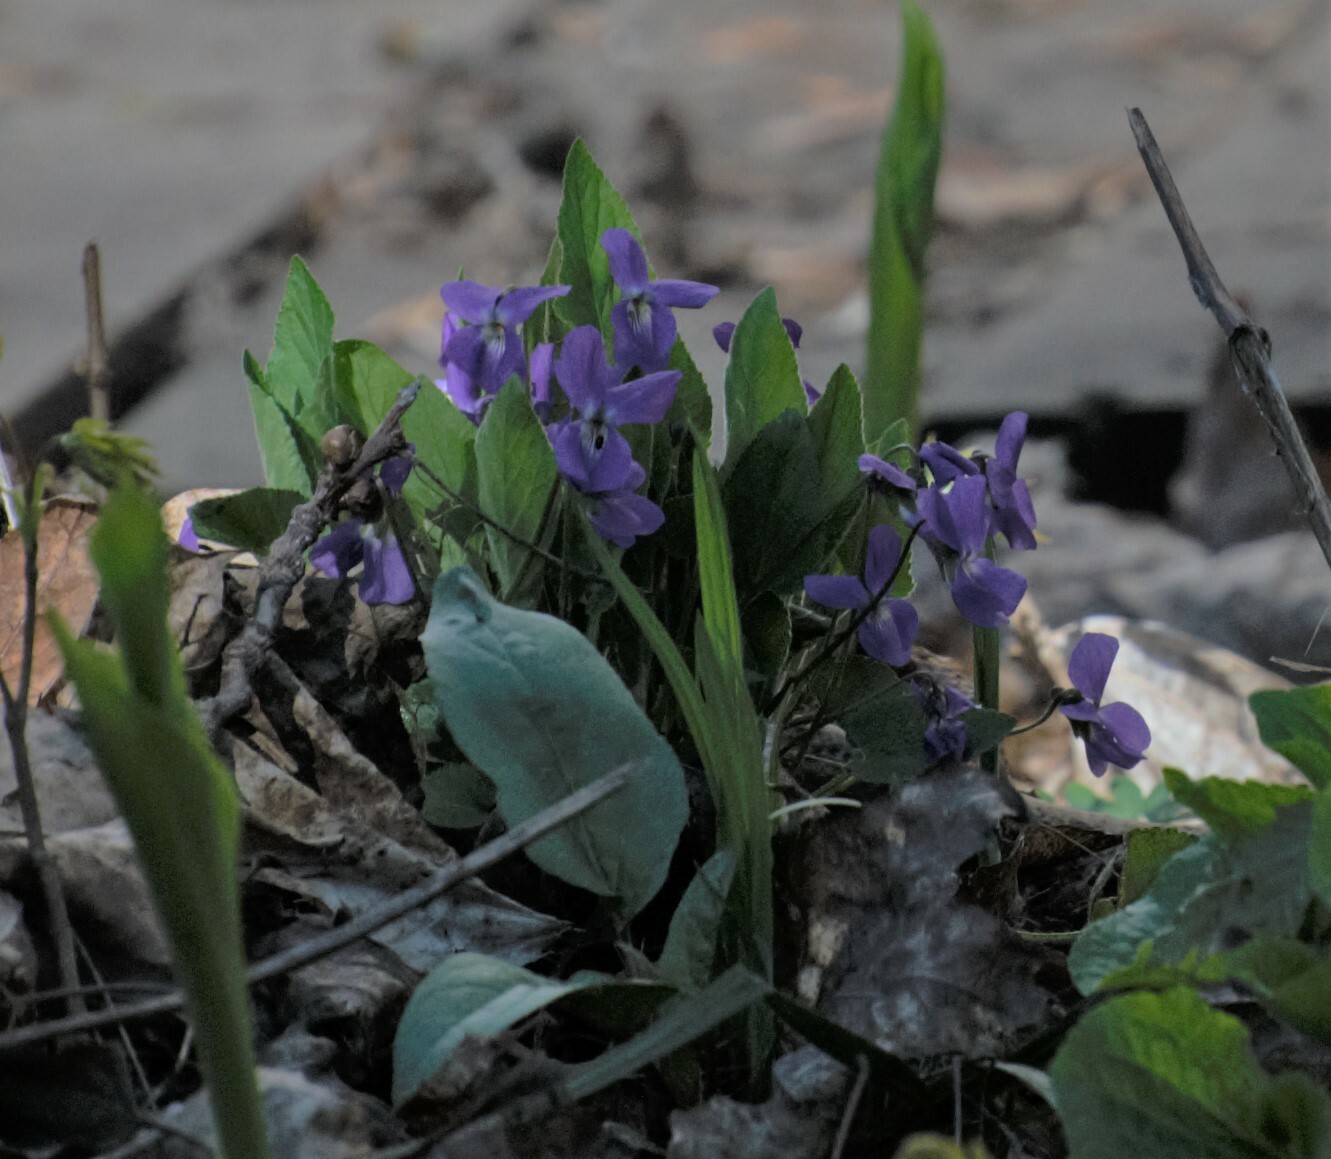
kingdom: Plantae
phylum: Tracheophyta
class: Magnoliopsida
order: Malpighiales
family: Violaceae
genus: Viola
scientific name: Viola hirta
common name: Hairy violet
